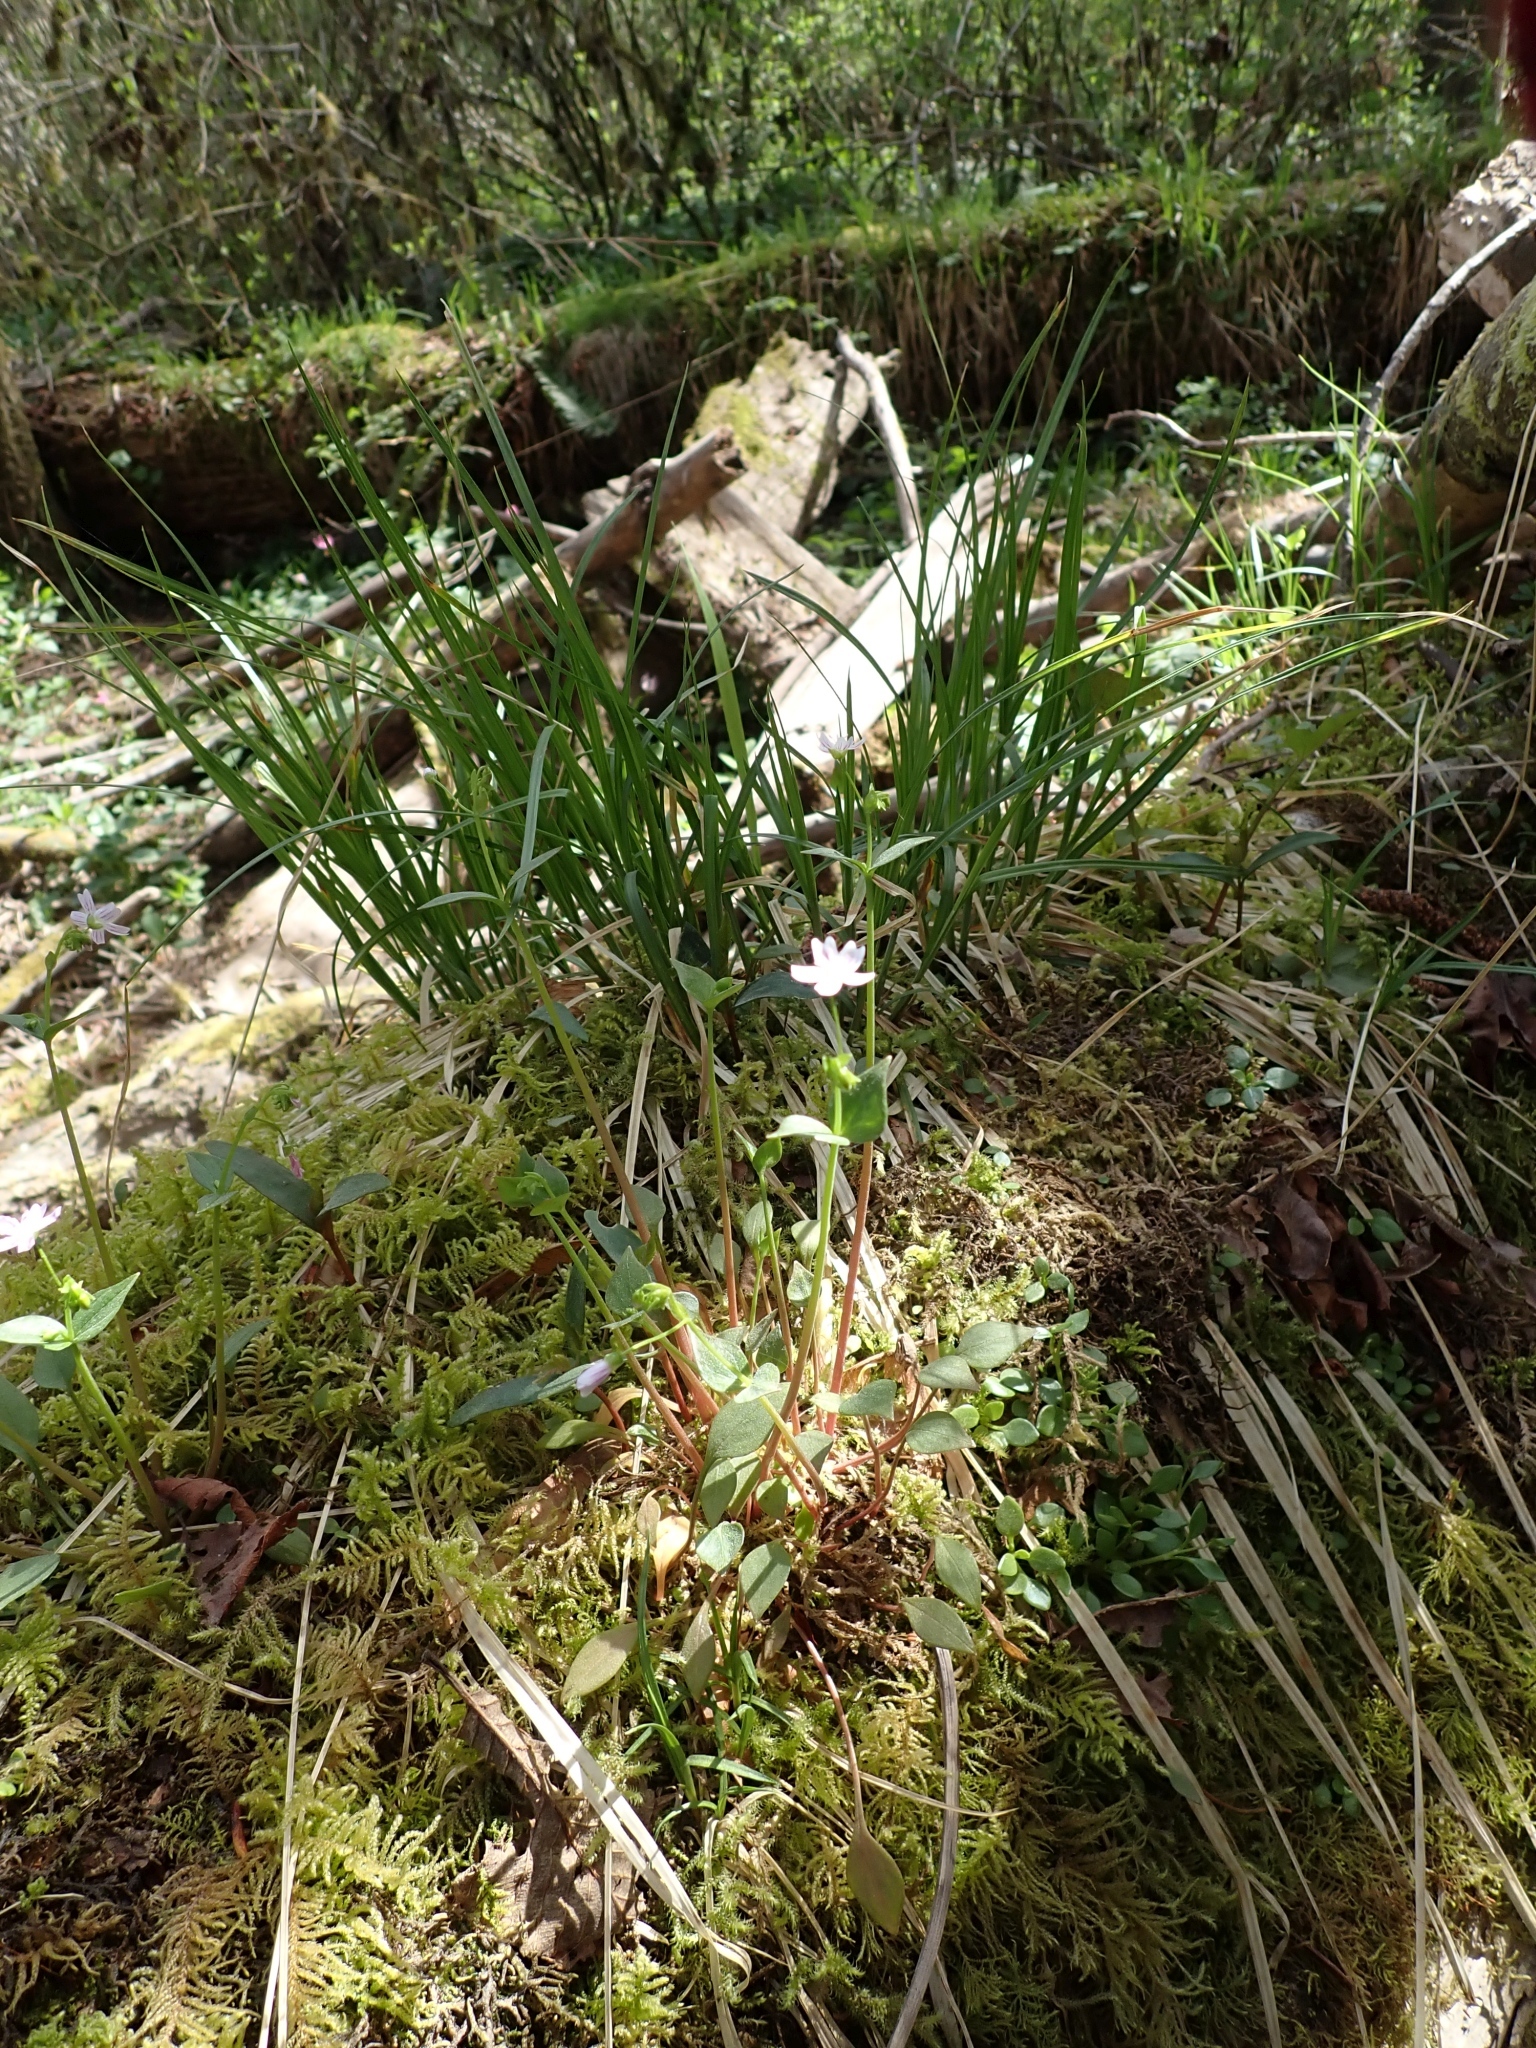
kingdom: Plantae
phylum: Tracheophyta
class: Magnoliopsida
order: Caryophyllales
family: Montiaceae
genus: Claytonia
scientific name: Claytonia sibirica
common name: Pink purslane
